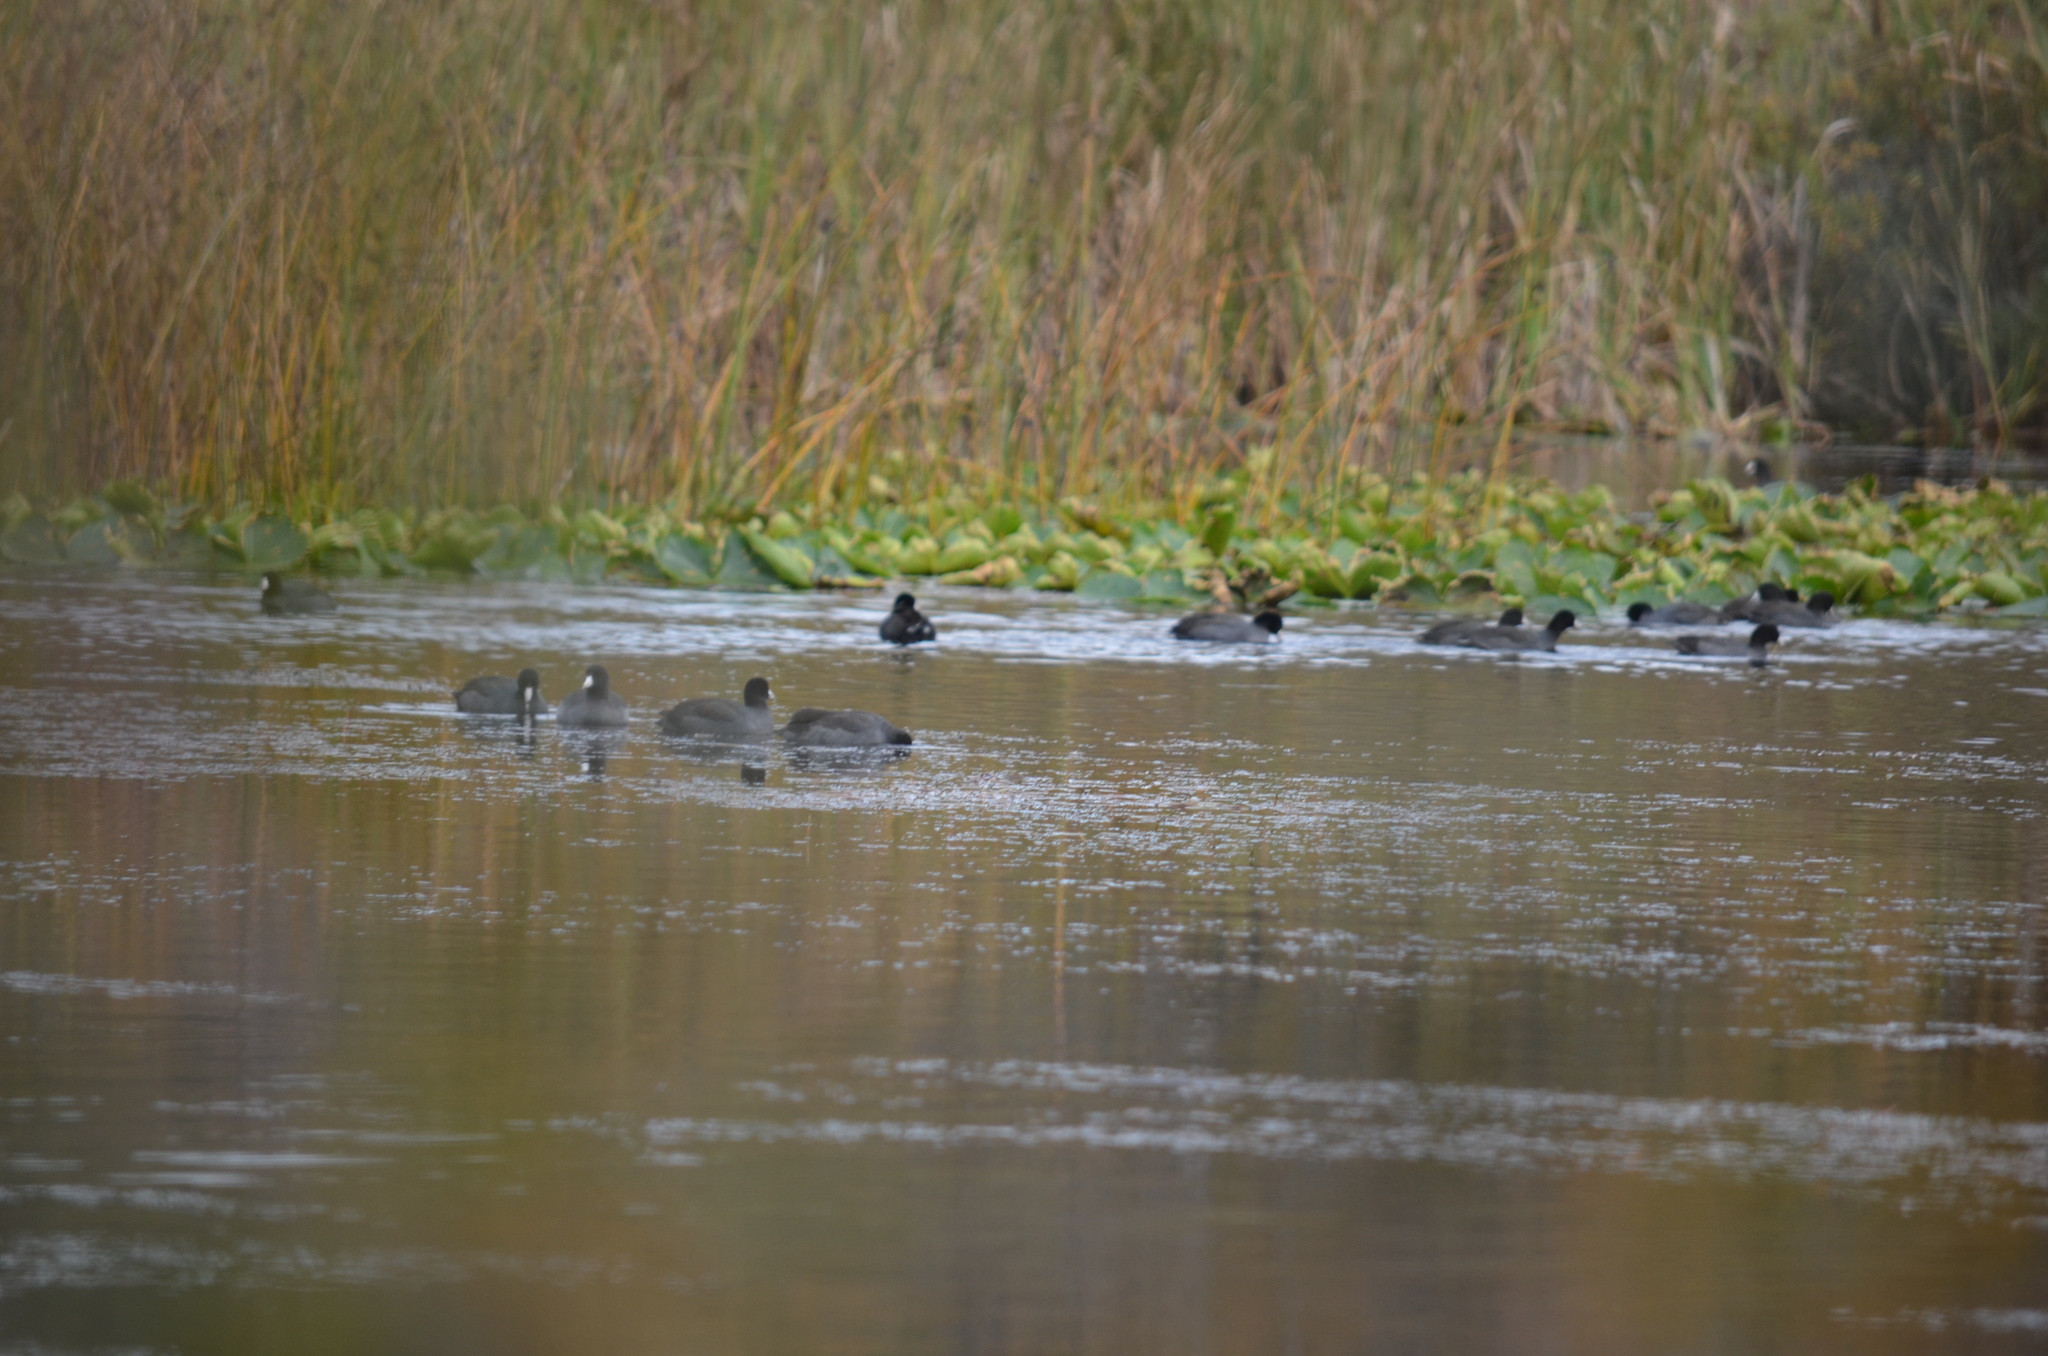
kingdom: Animalia
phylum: Chordata
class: Aves
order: Gruiformes
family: Rallidae
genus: Fulica
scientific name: Fulica americana
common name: American coot
